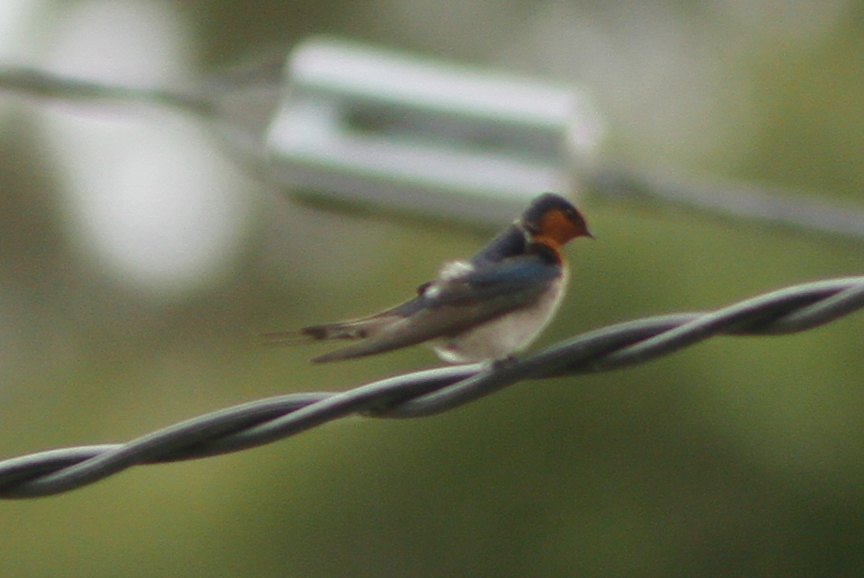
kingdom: Animalia
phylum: Chordata
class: Aves
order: Passeriformes
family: Hirundinidae
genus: Hirundo
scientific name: Hirundo neoxena
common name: Welcome swallow
